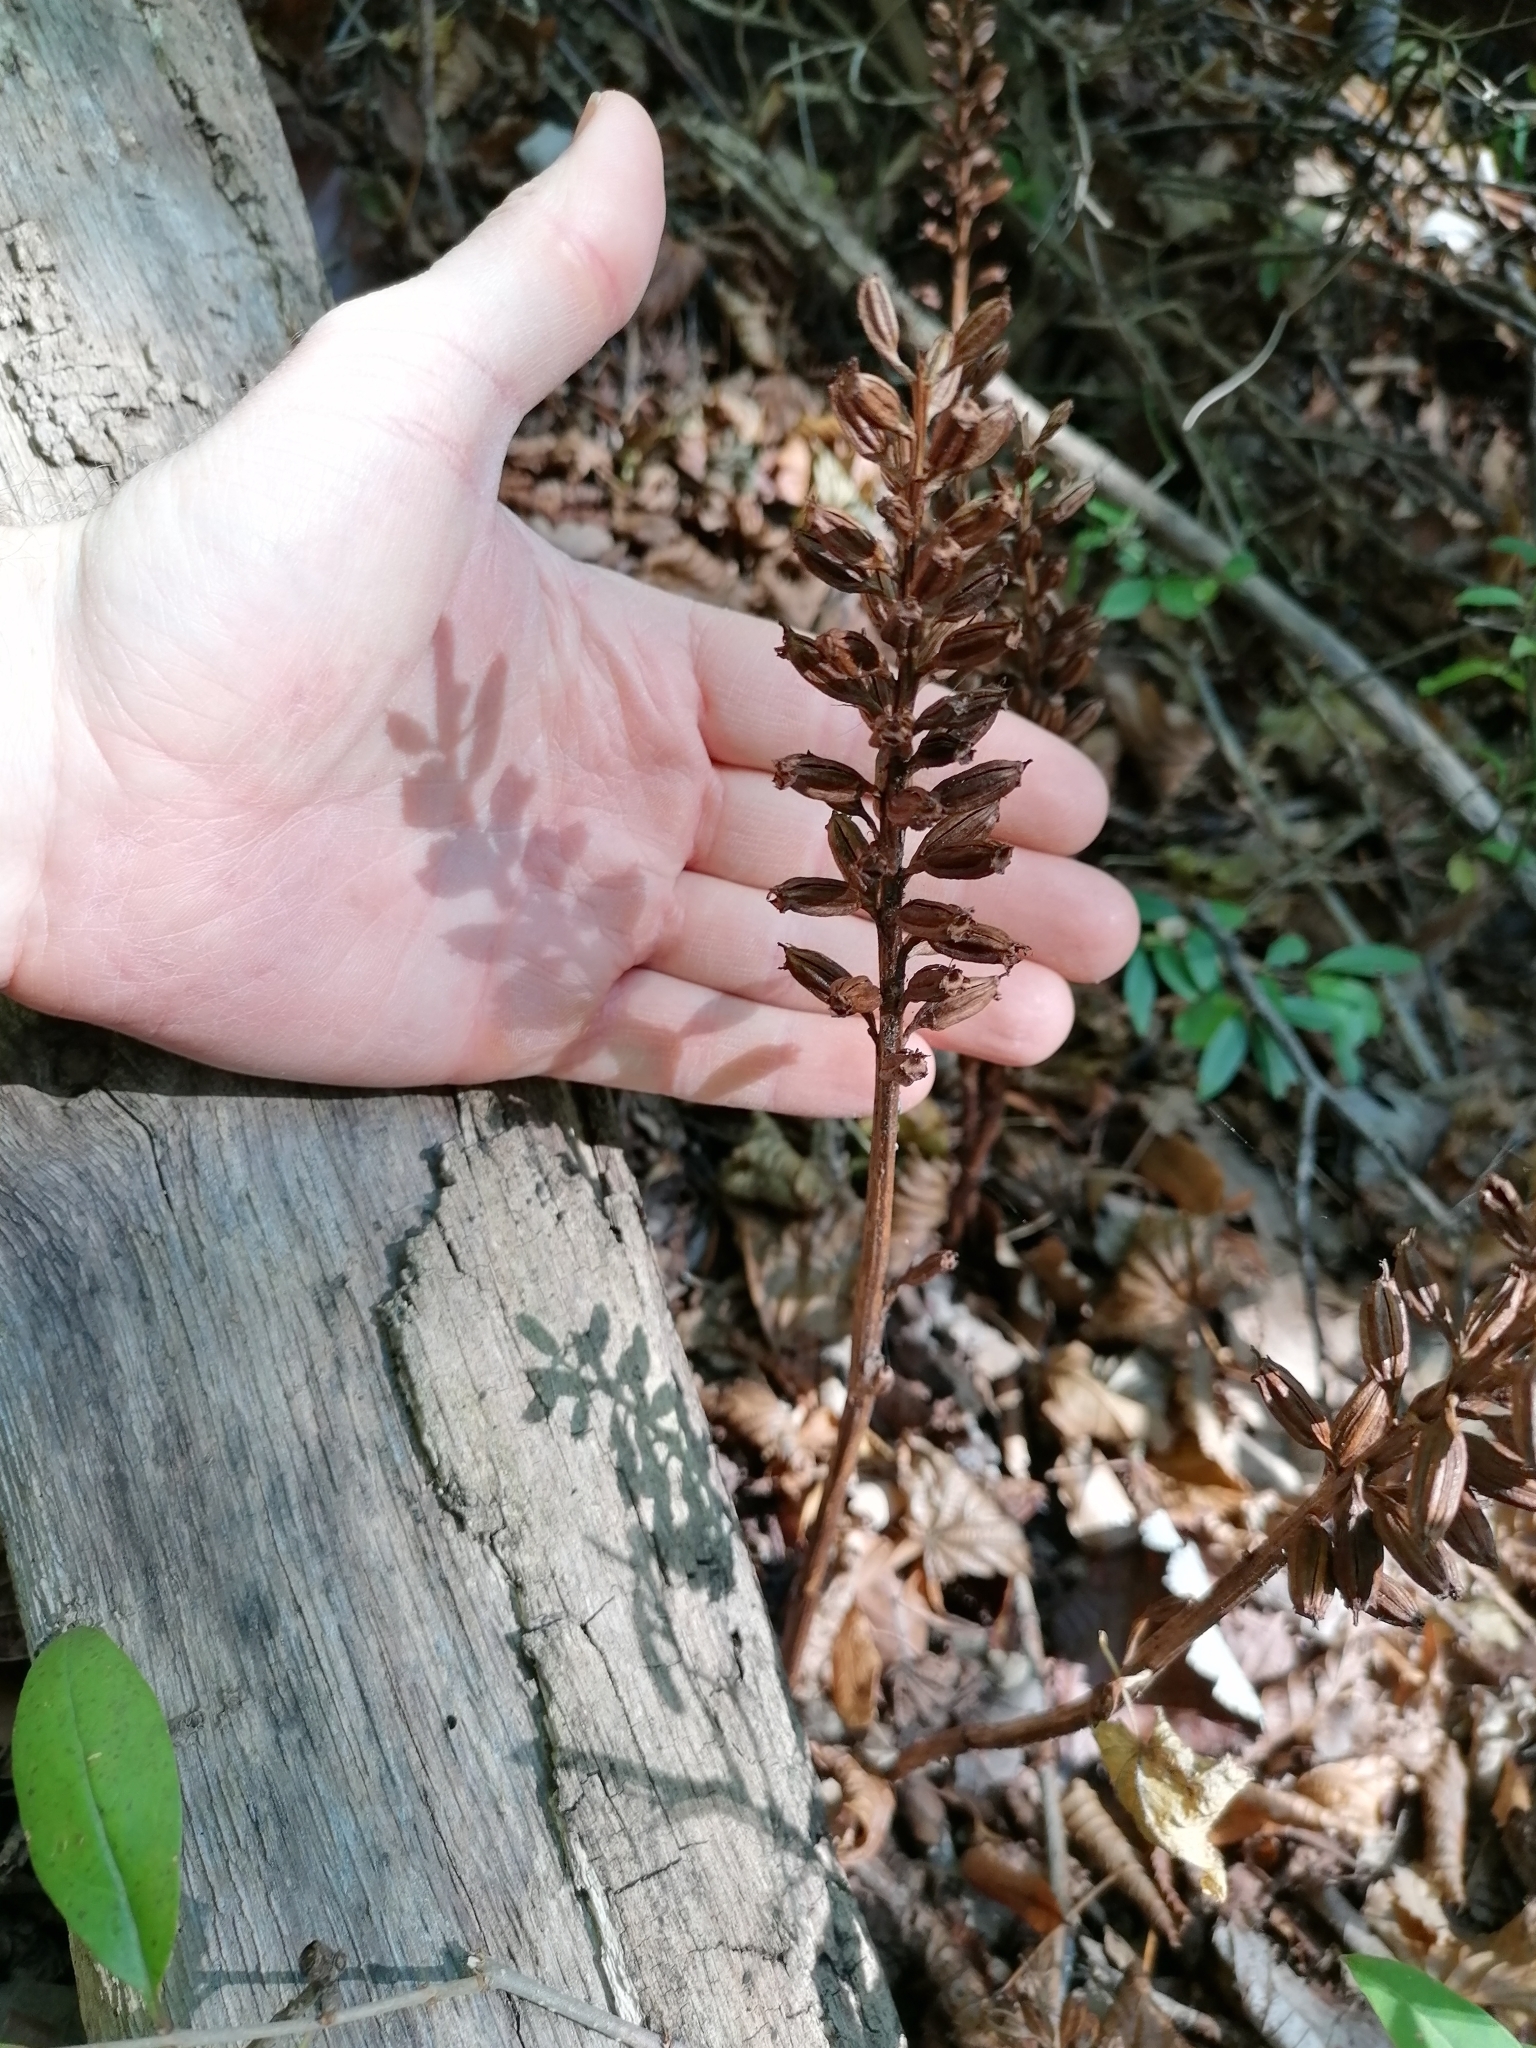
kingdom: Plantae
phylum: Tracheophyta
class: Liliopsida
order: Asparagales
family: Orchidaceae
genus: Neottia
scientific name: Neottia nidus-avis
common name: Bird's-nest orchid
